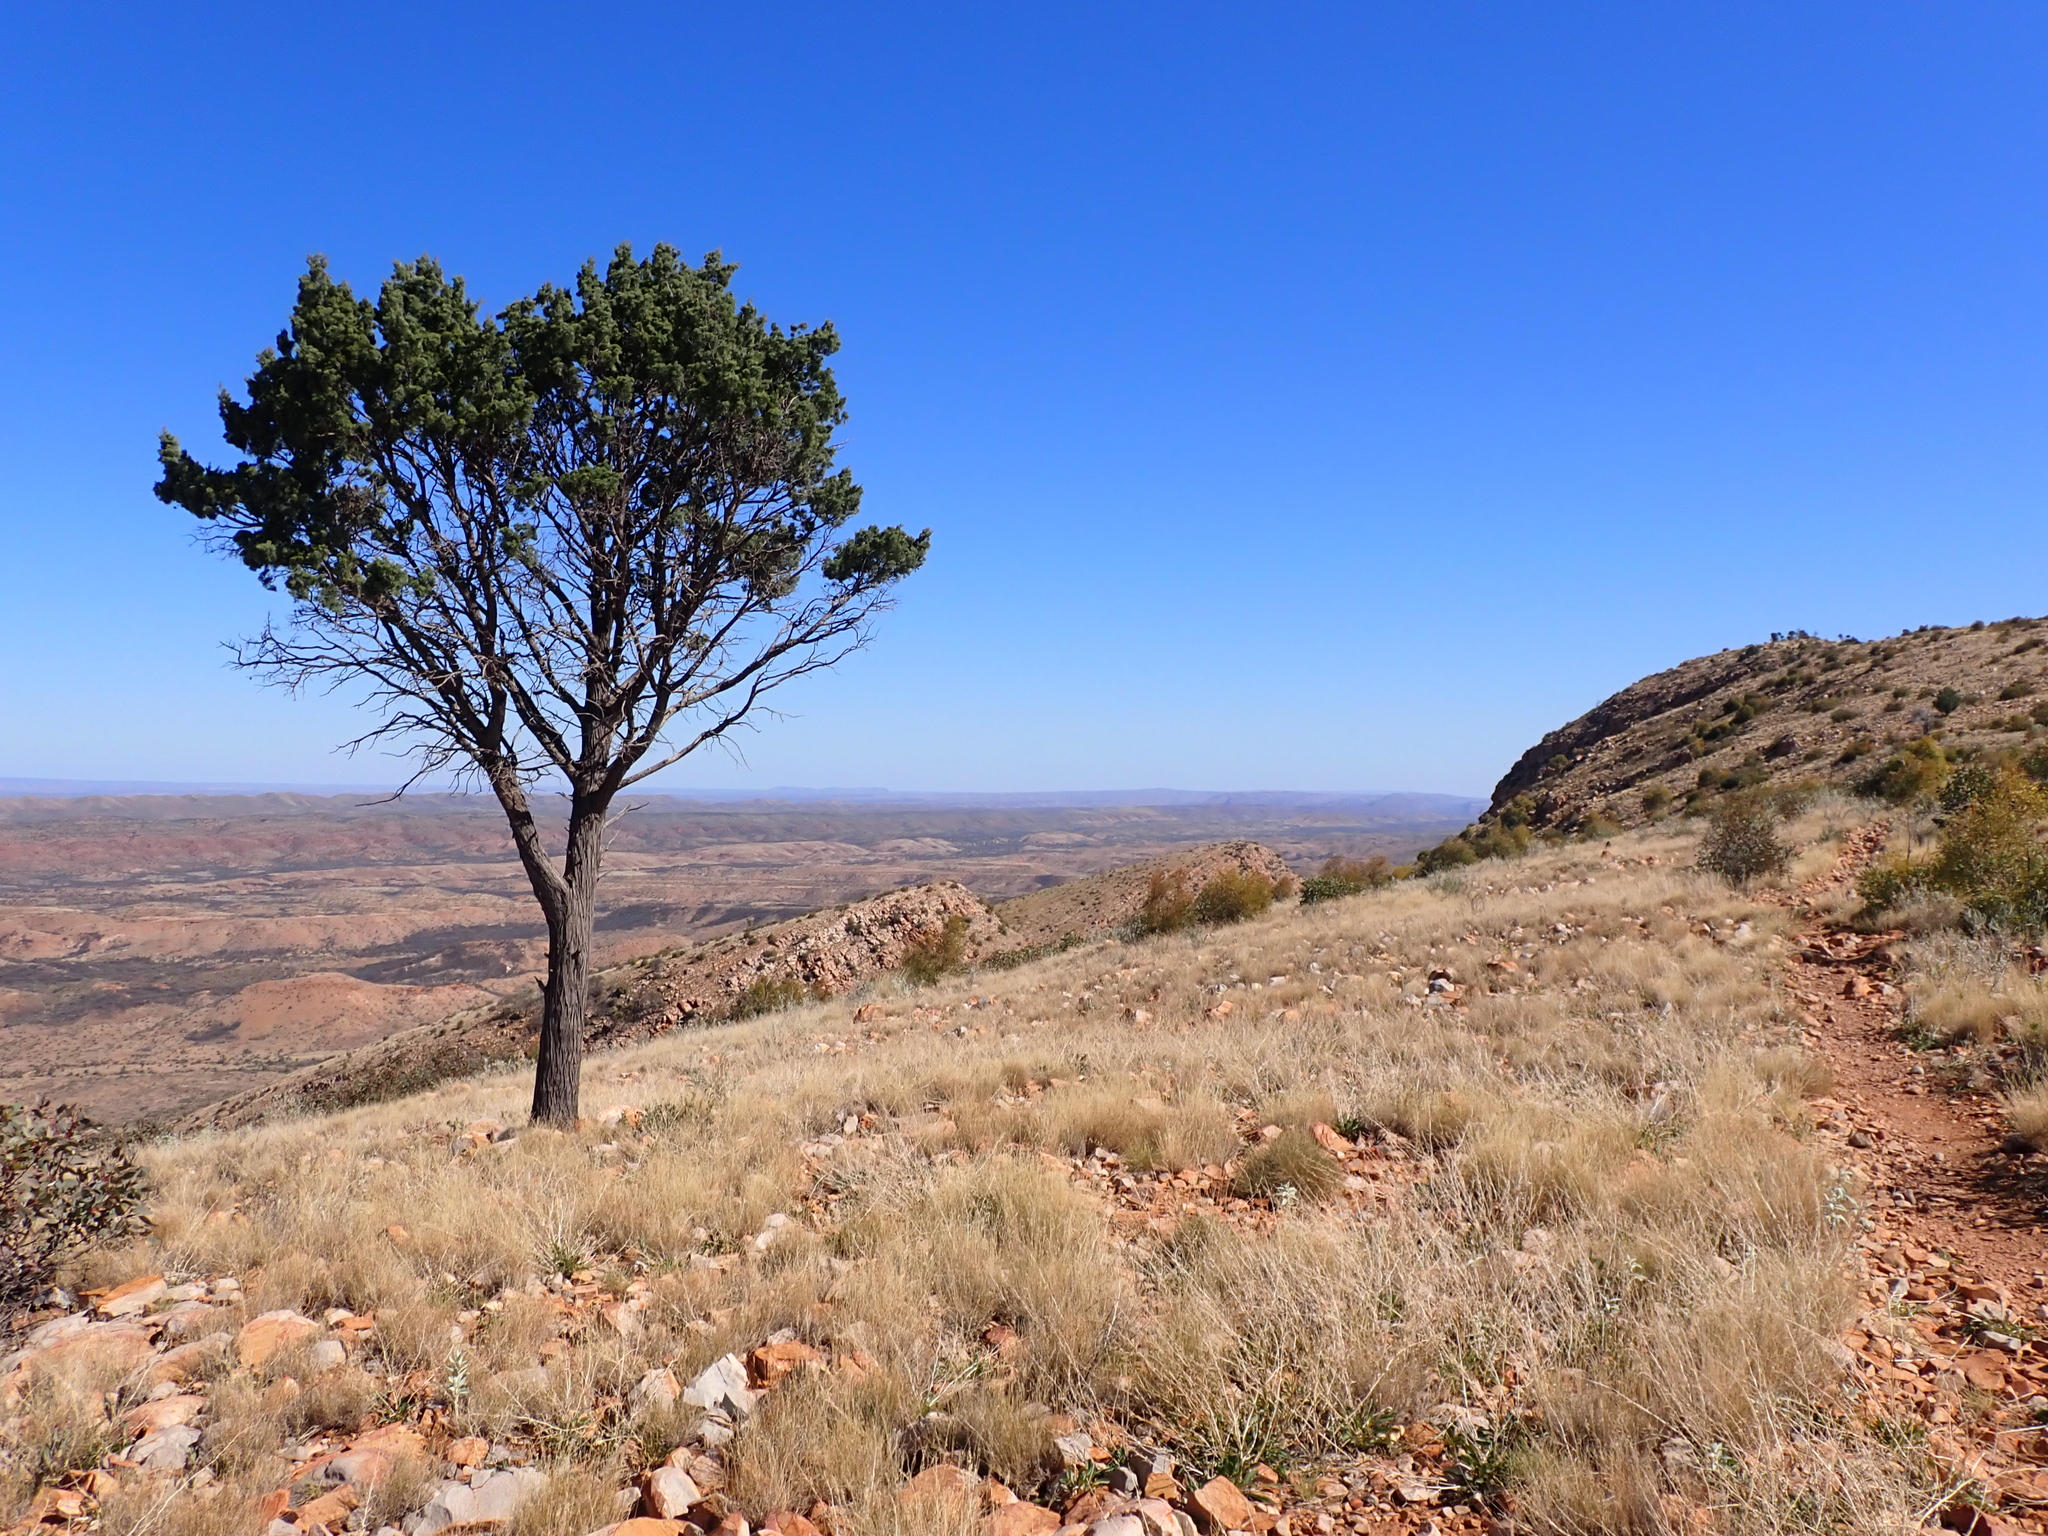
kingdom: Plantae
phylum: Tracheophyta
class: Pinopsida
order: Pinales
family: Cupressaceae
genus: Callitris
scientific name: Callitris columellaris
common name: White cypress-pine
